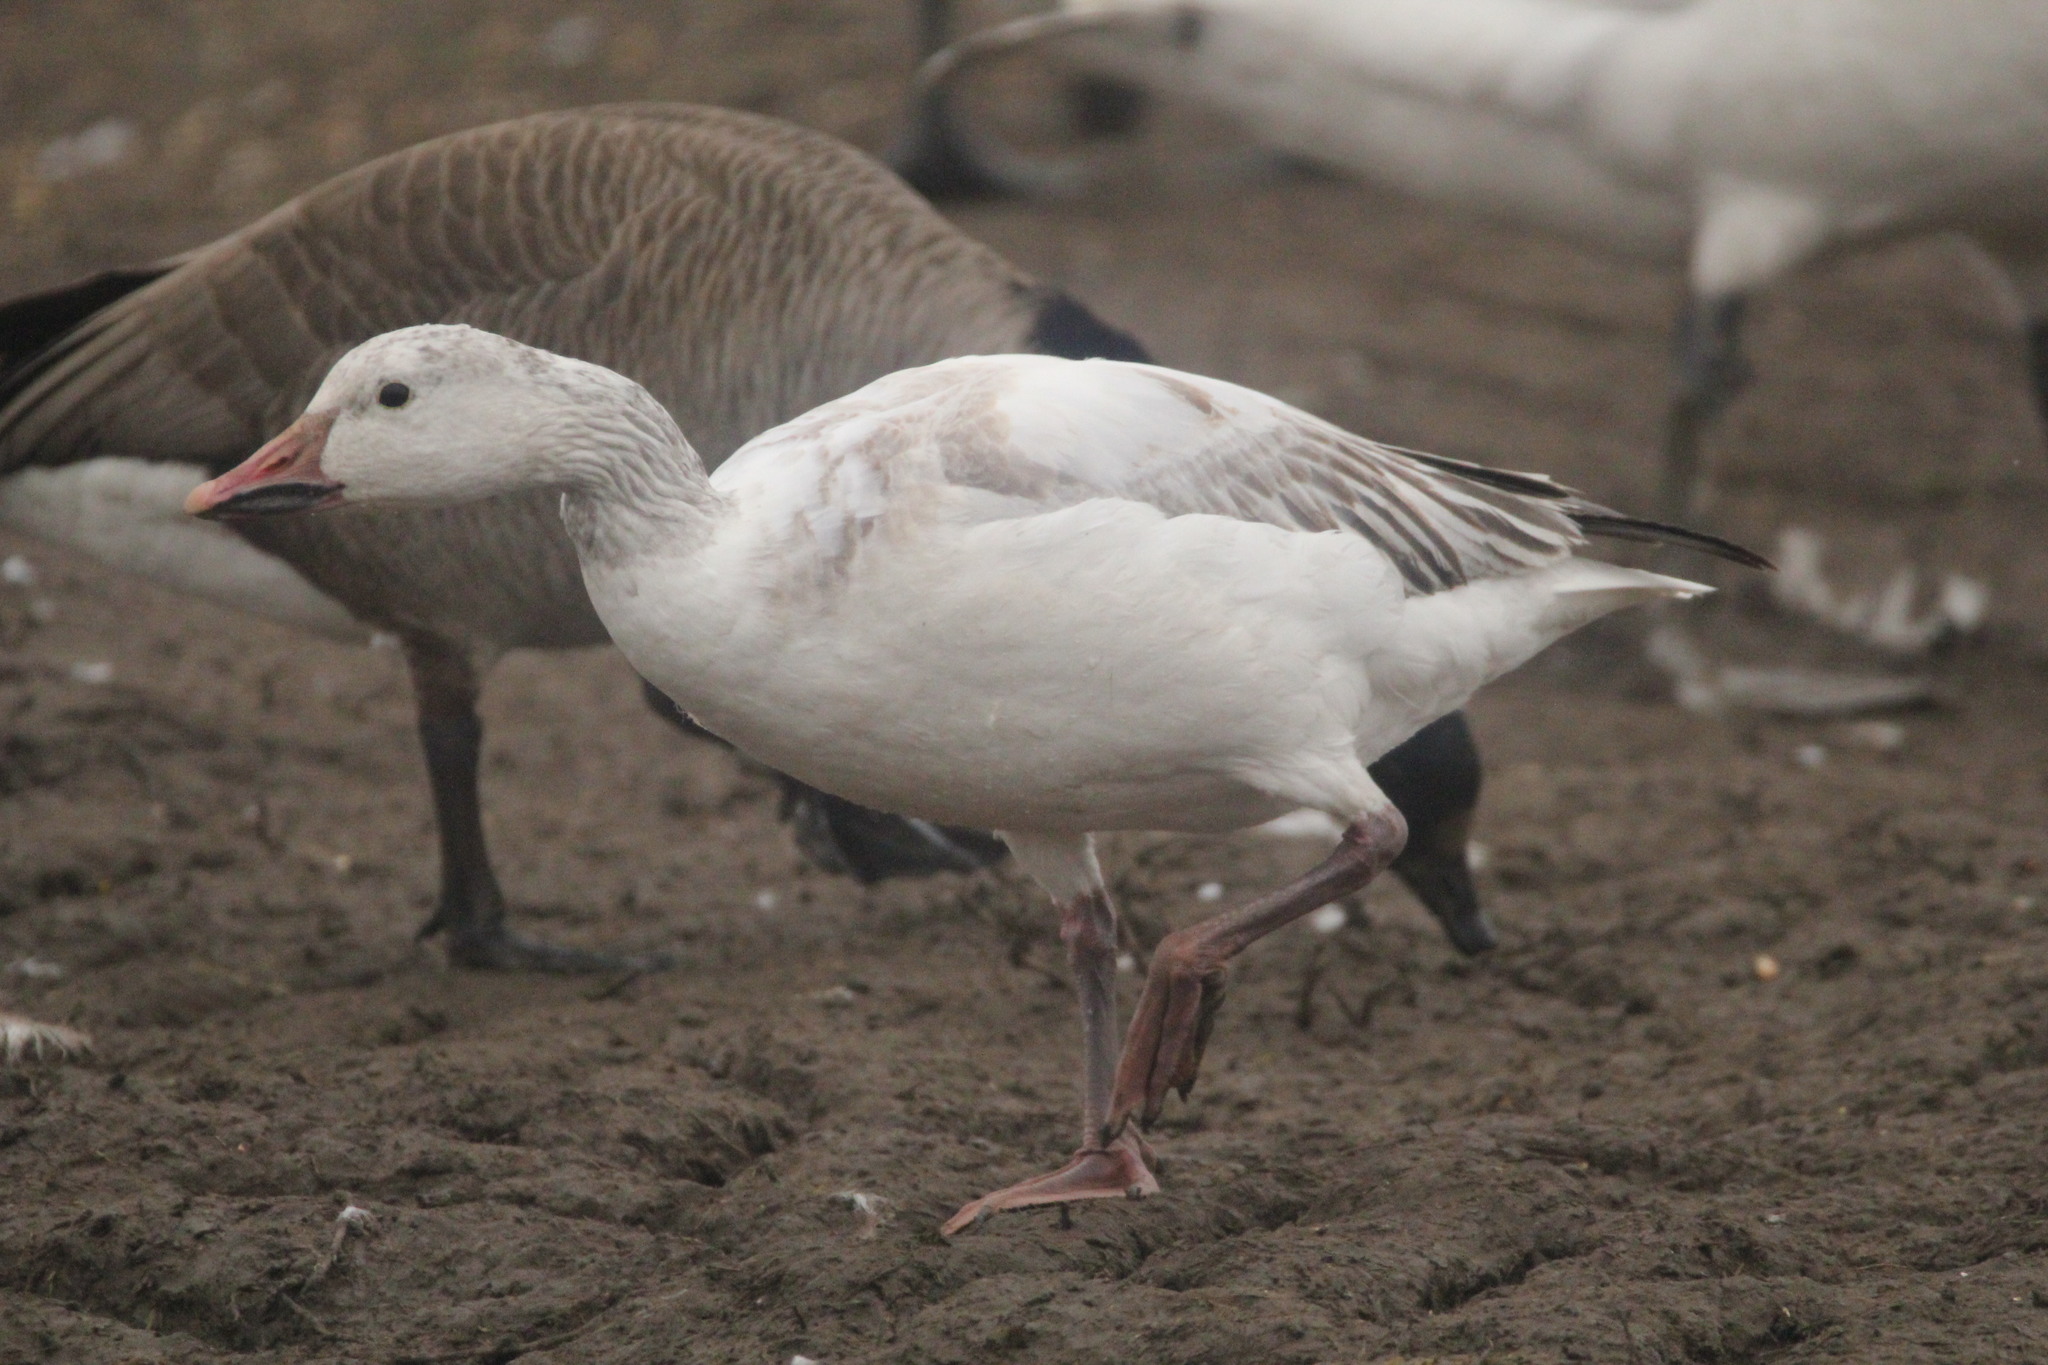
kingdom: Animalia
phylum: Chordata
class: Aves
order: Anseriformes
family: Anatidae
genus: Anser
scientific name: Anser caerulescens
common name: Snow goose
